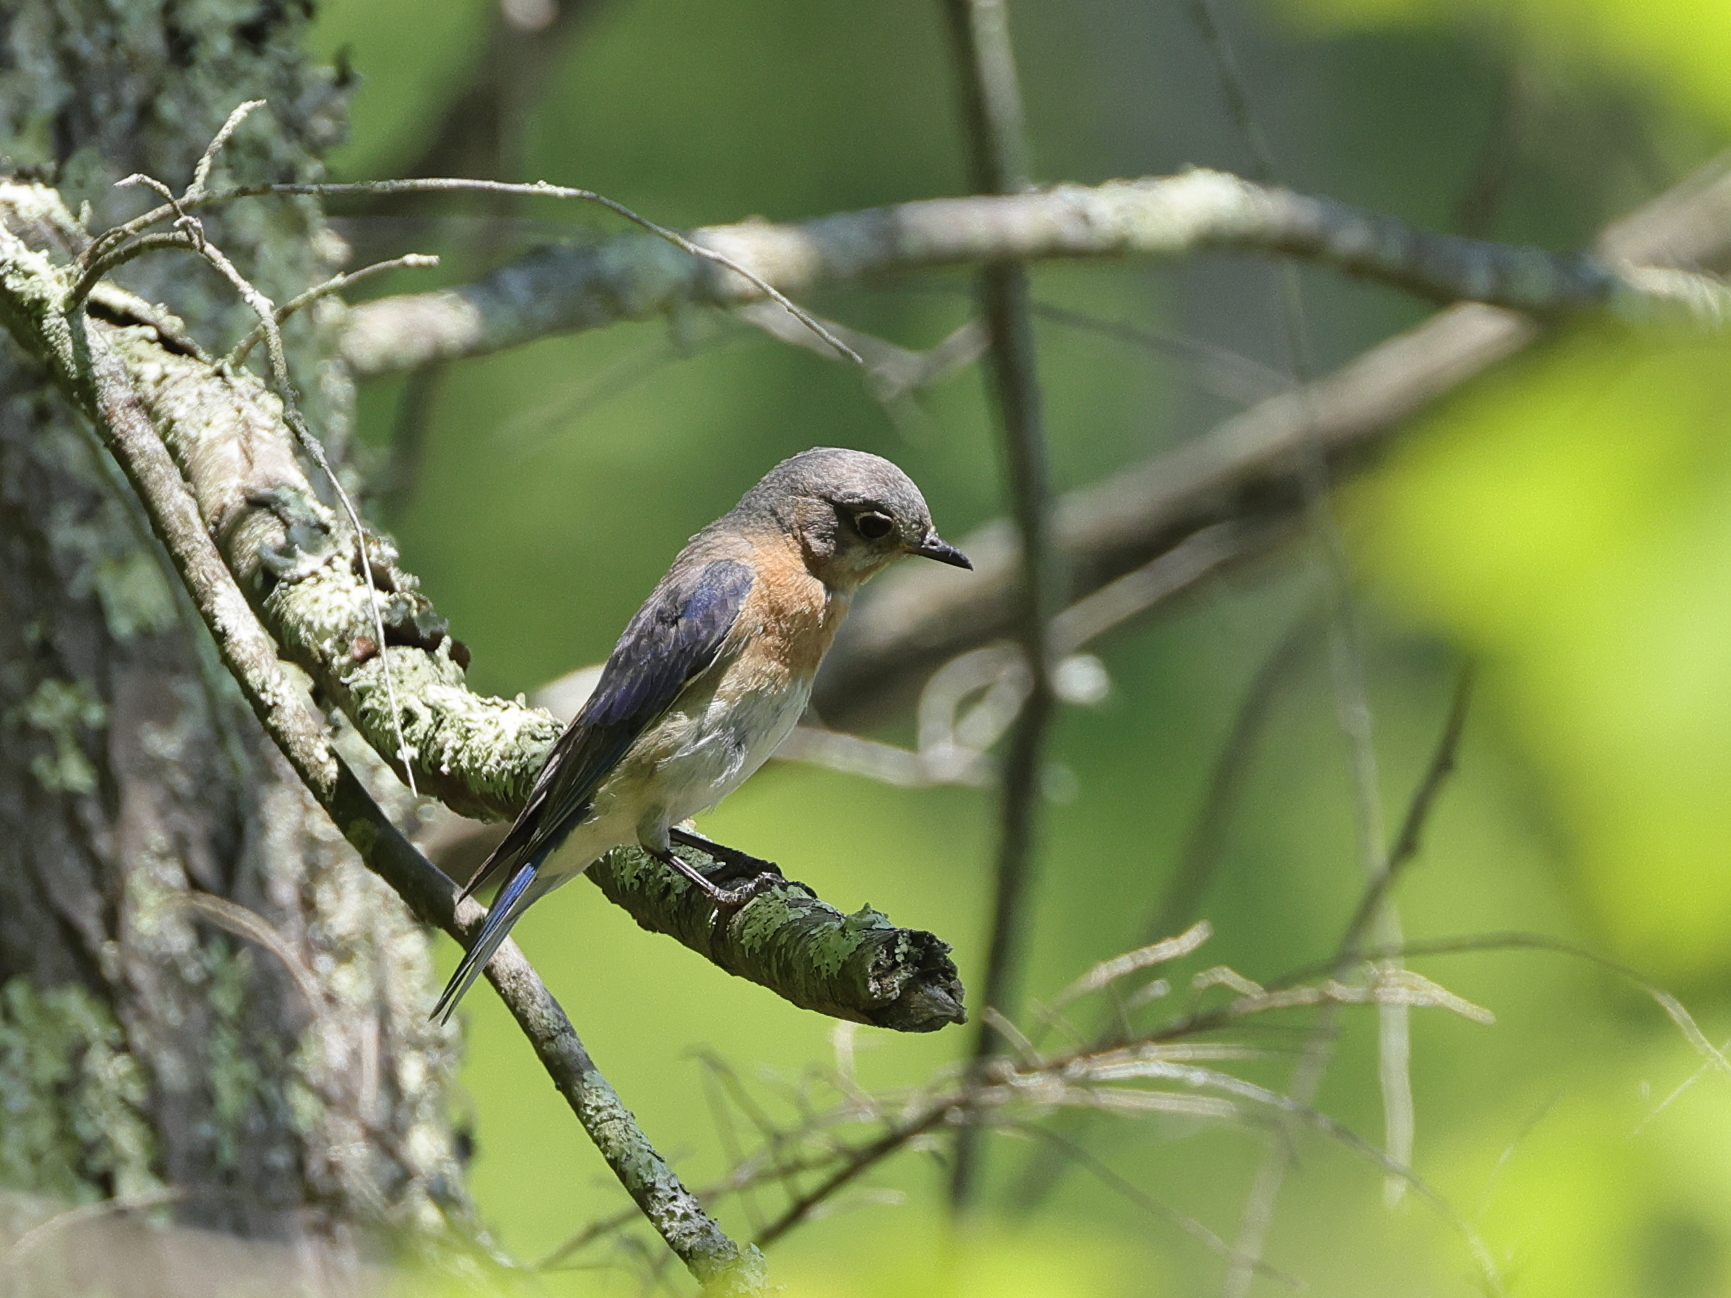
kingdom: Animalia
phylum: Chordata
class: Aves
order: Passeriformes
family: Turdidae
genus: Sialia
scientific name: Sialia sialis
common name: Eastern bluebird
